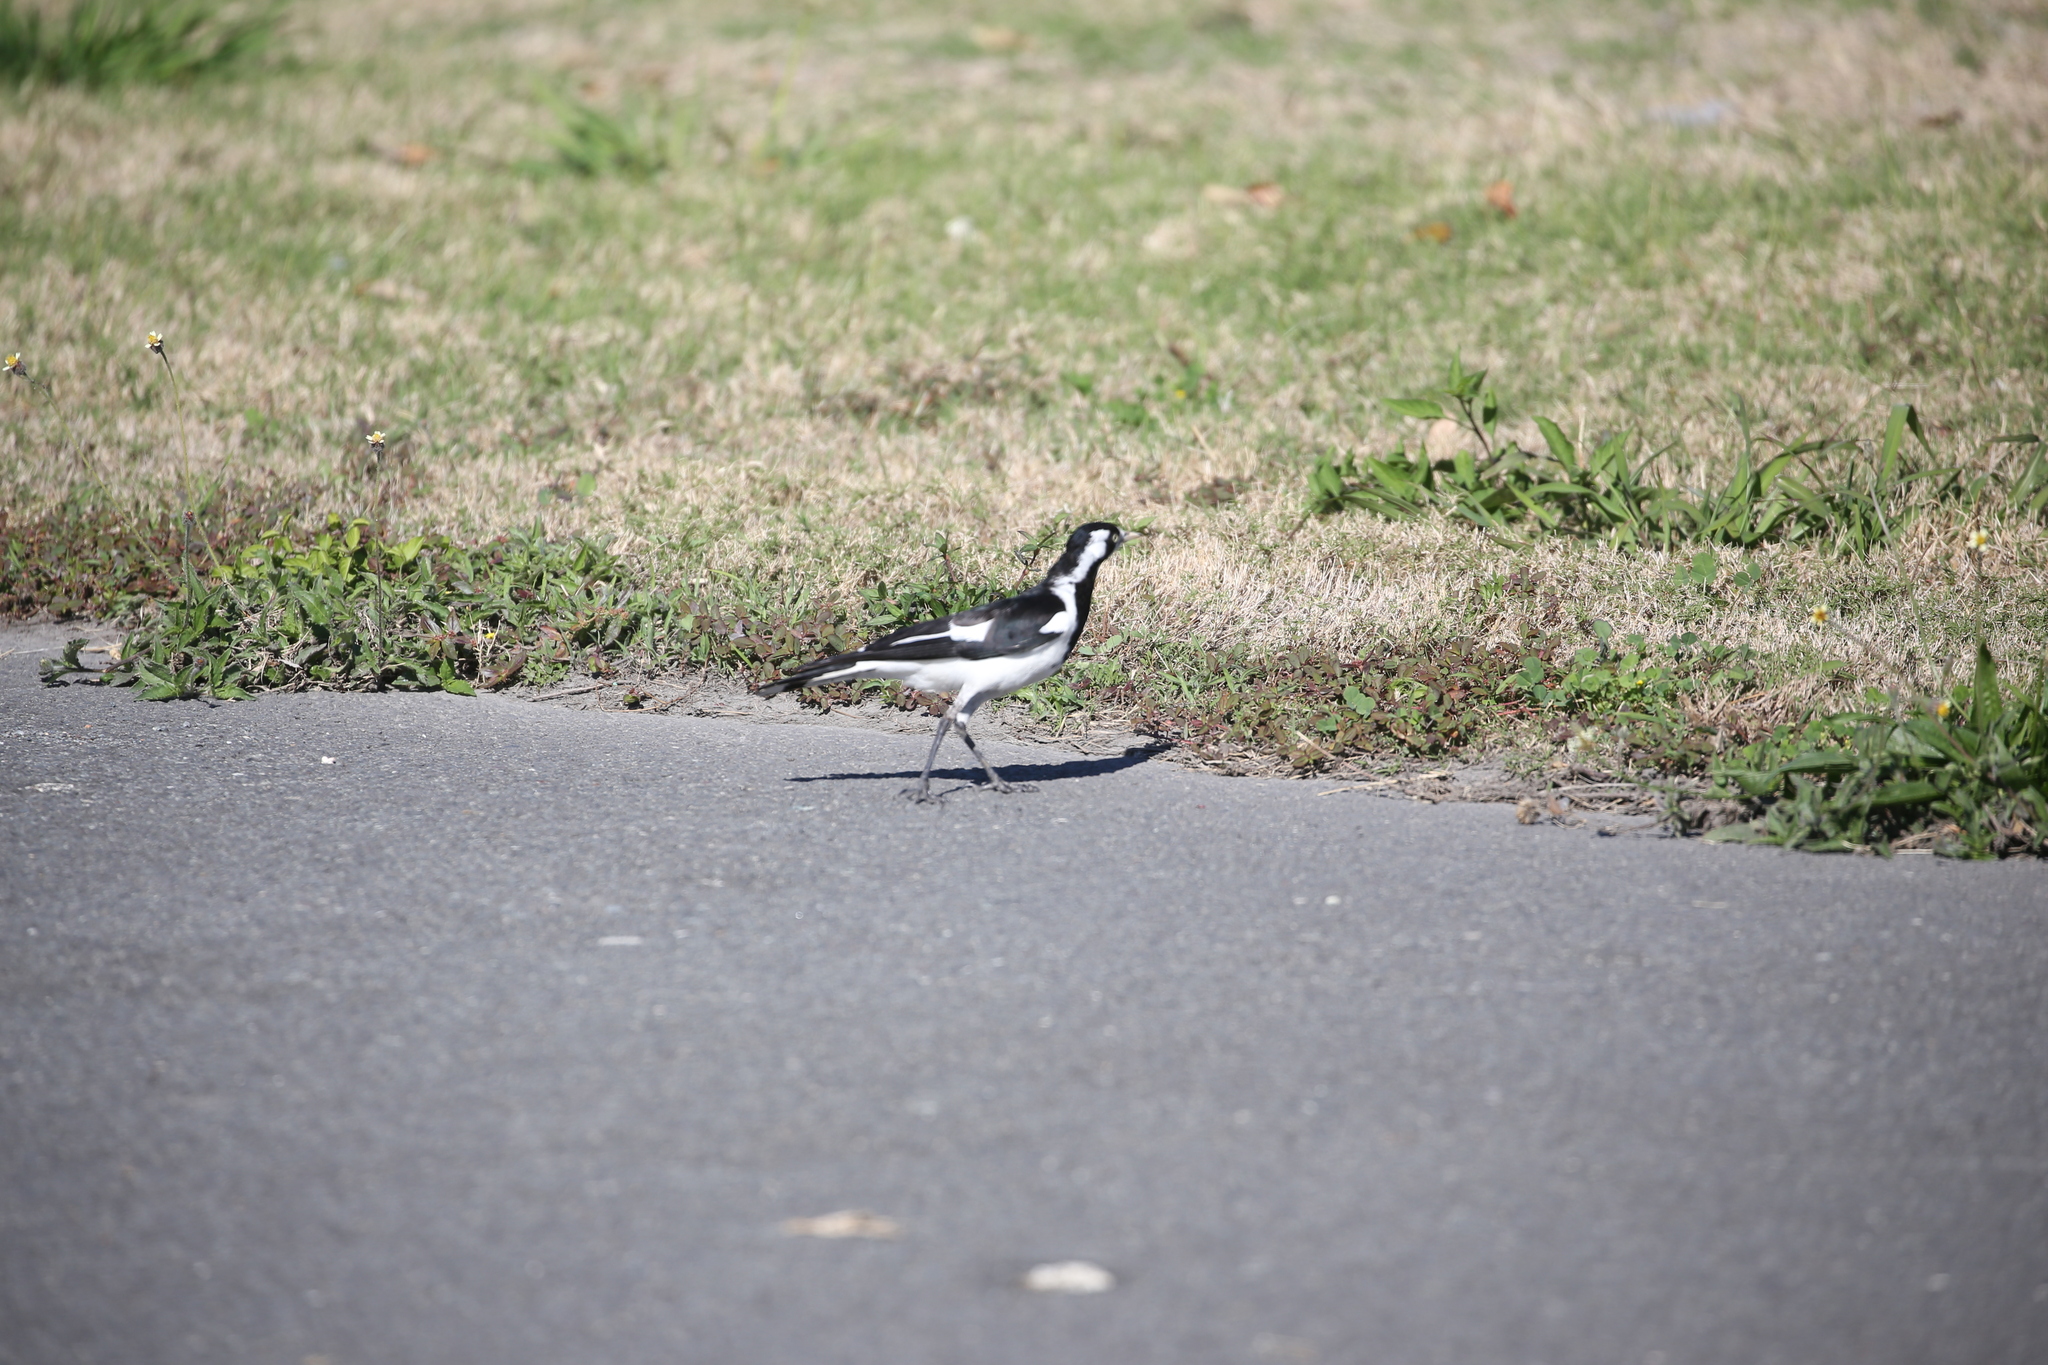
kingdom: Animalia
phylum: Chordata
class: Aves
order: Passeriformes
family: Monarchidae
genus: Grallina
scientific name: Grallina cyanoleuca
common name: Magpie-lark
